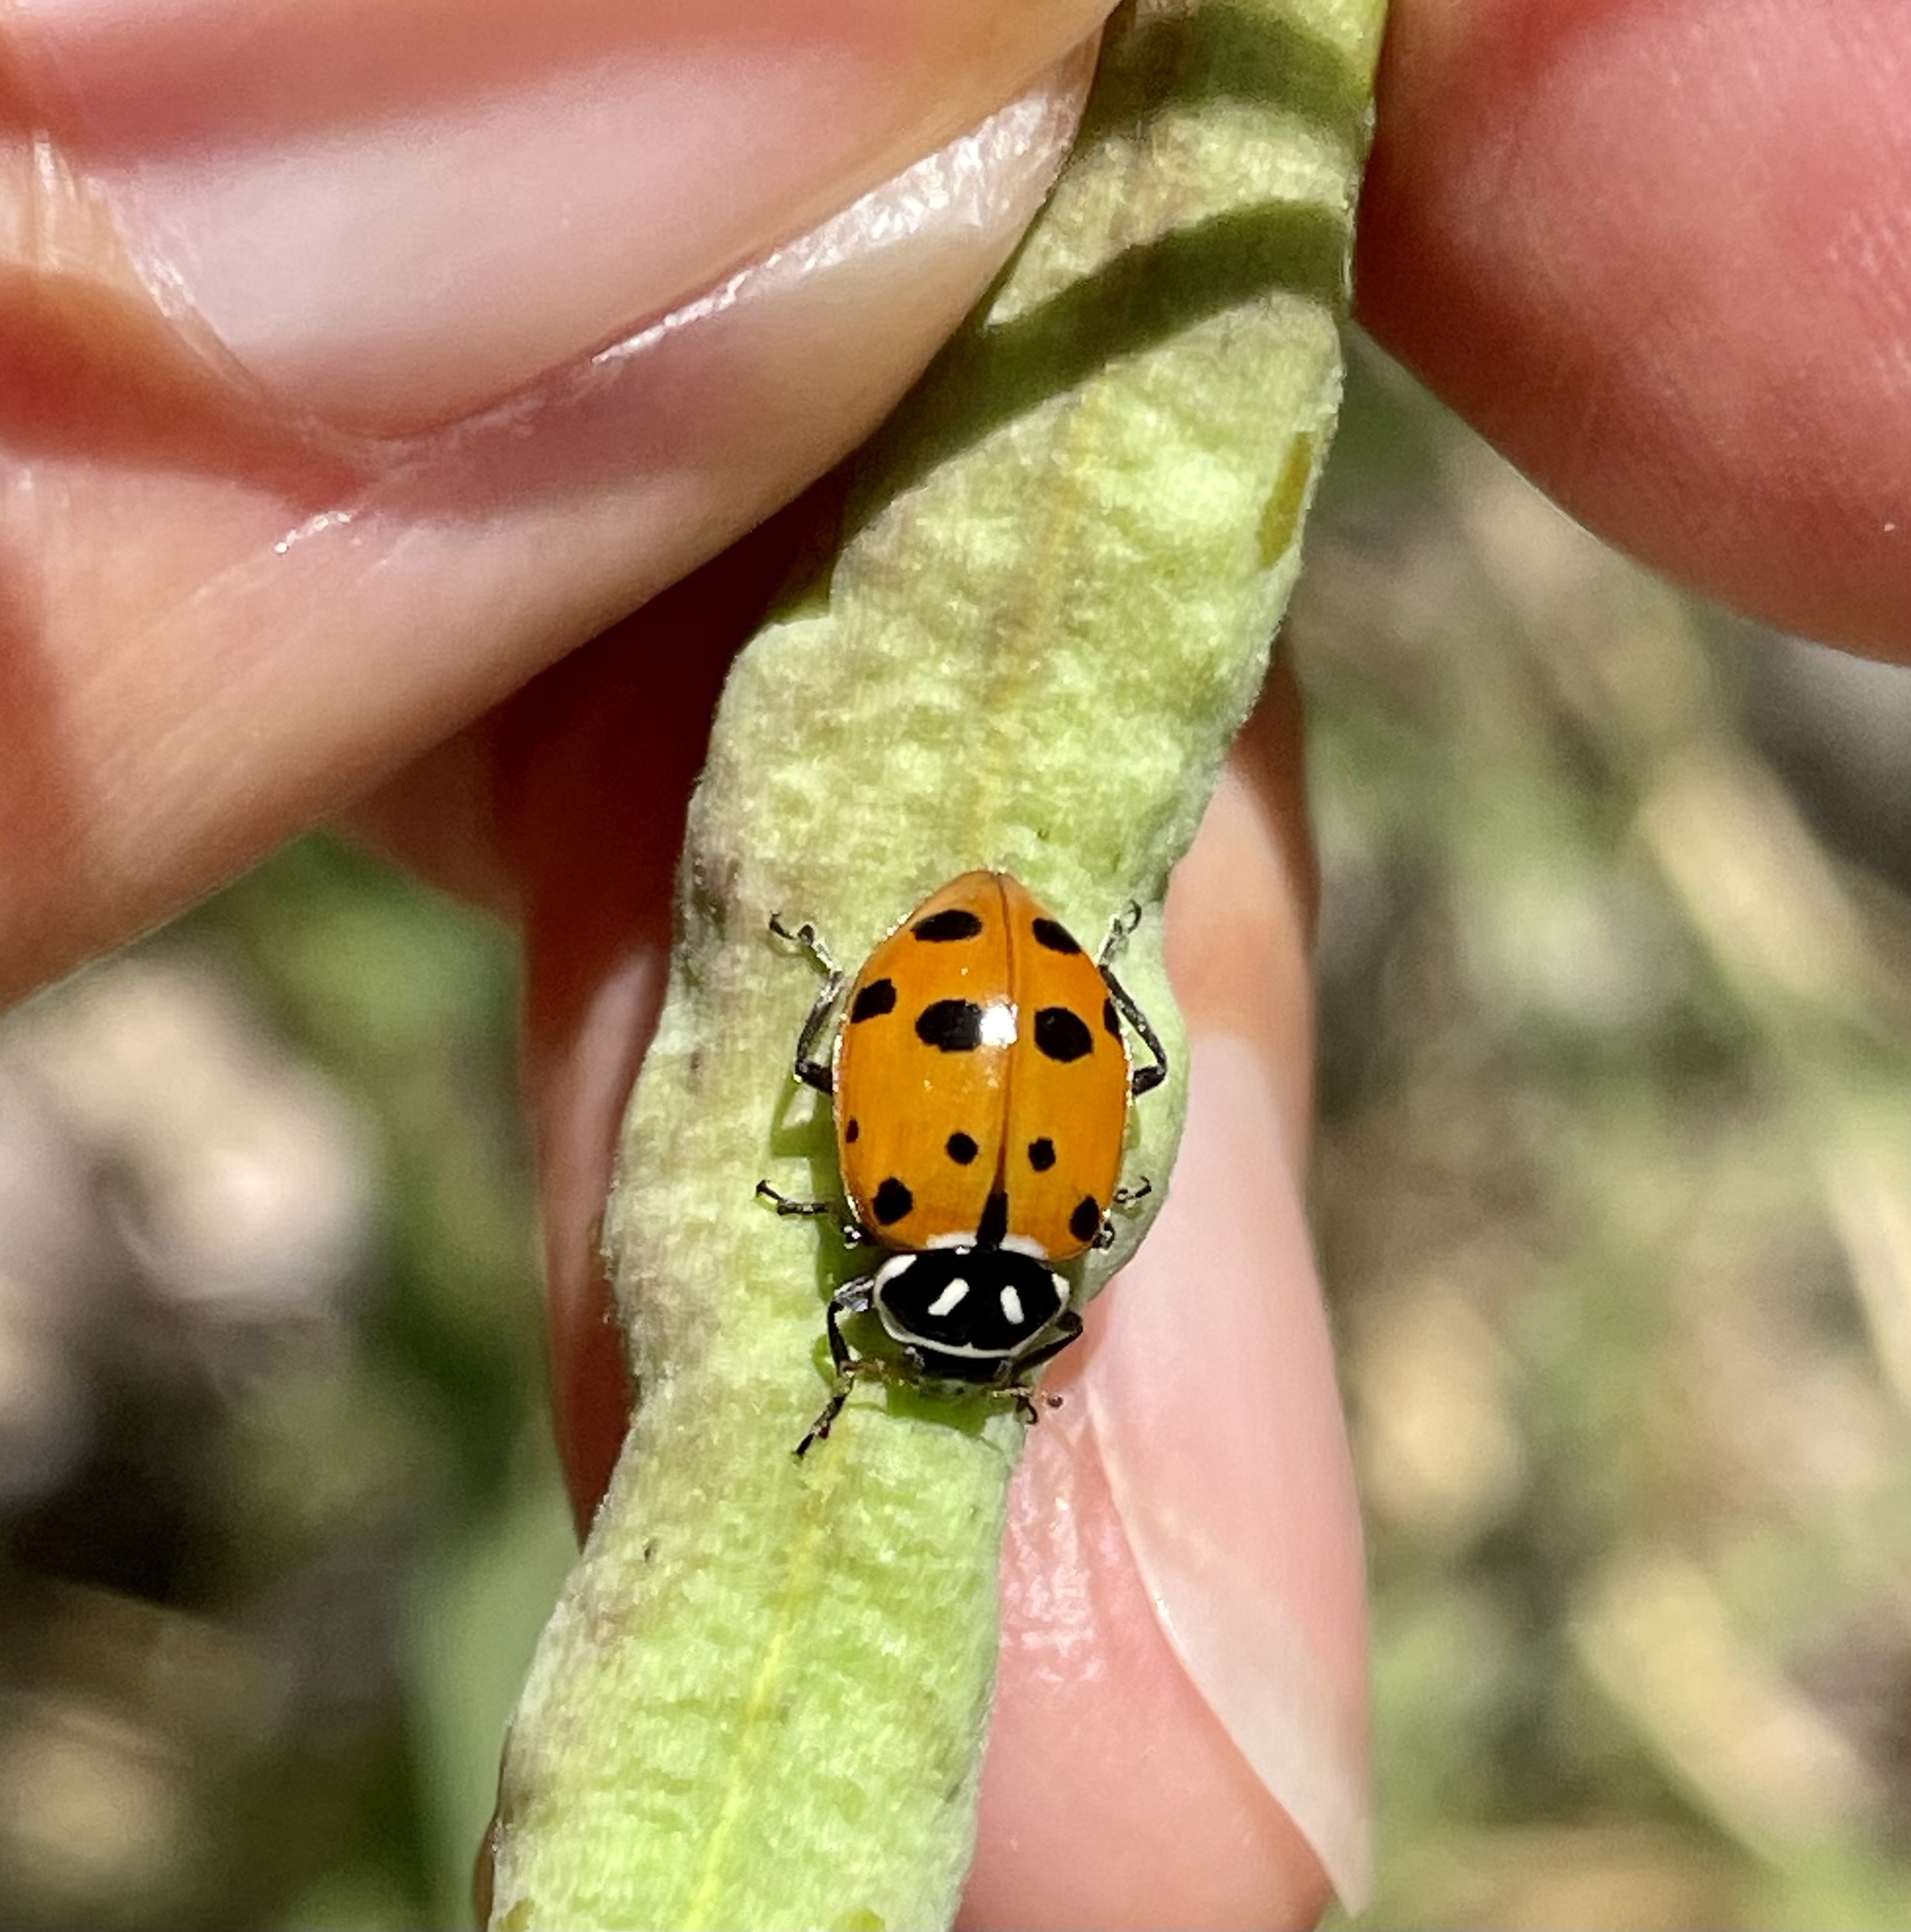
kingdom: Animalia
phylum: Arthropoda
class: Insecta
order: Coleoptera
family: Coccinellidae
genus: Hippodamia
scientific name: Hippodamia convergens
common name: Convergent lady beetle
